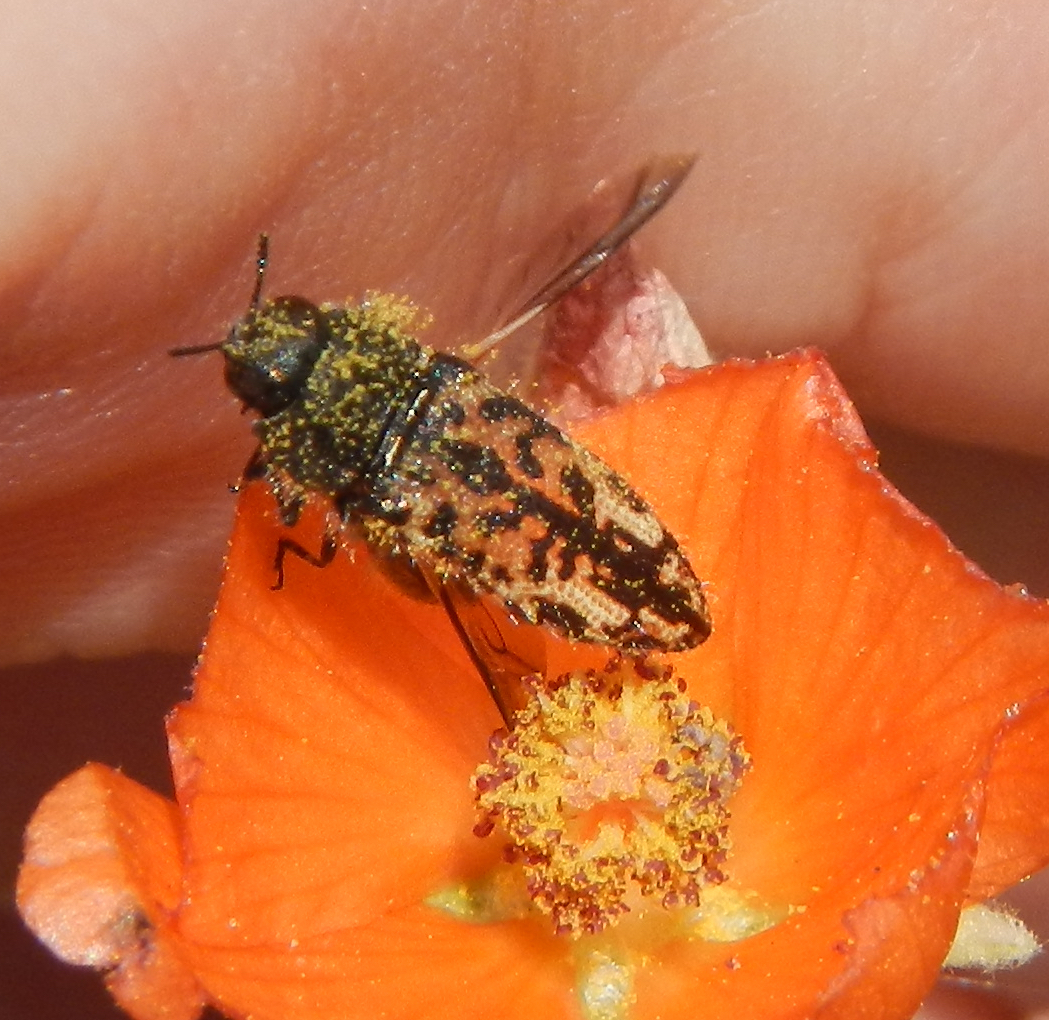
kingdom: Animalia
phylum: Arthropoda
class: Insecta
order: Coleoptera
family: Buprestidae
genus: Acmaeodera
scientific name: Acmaeodera sphaeralceae
